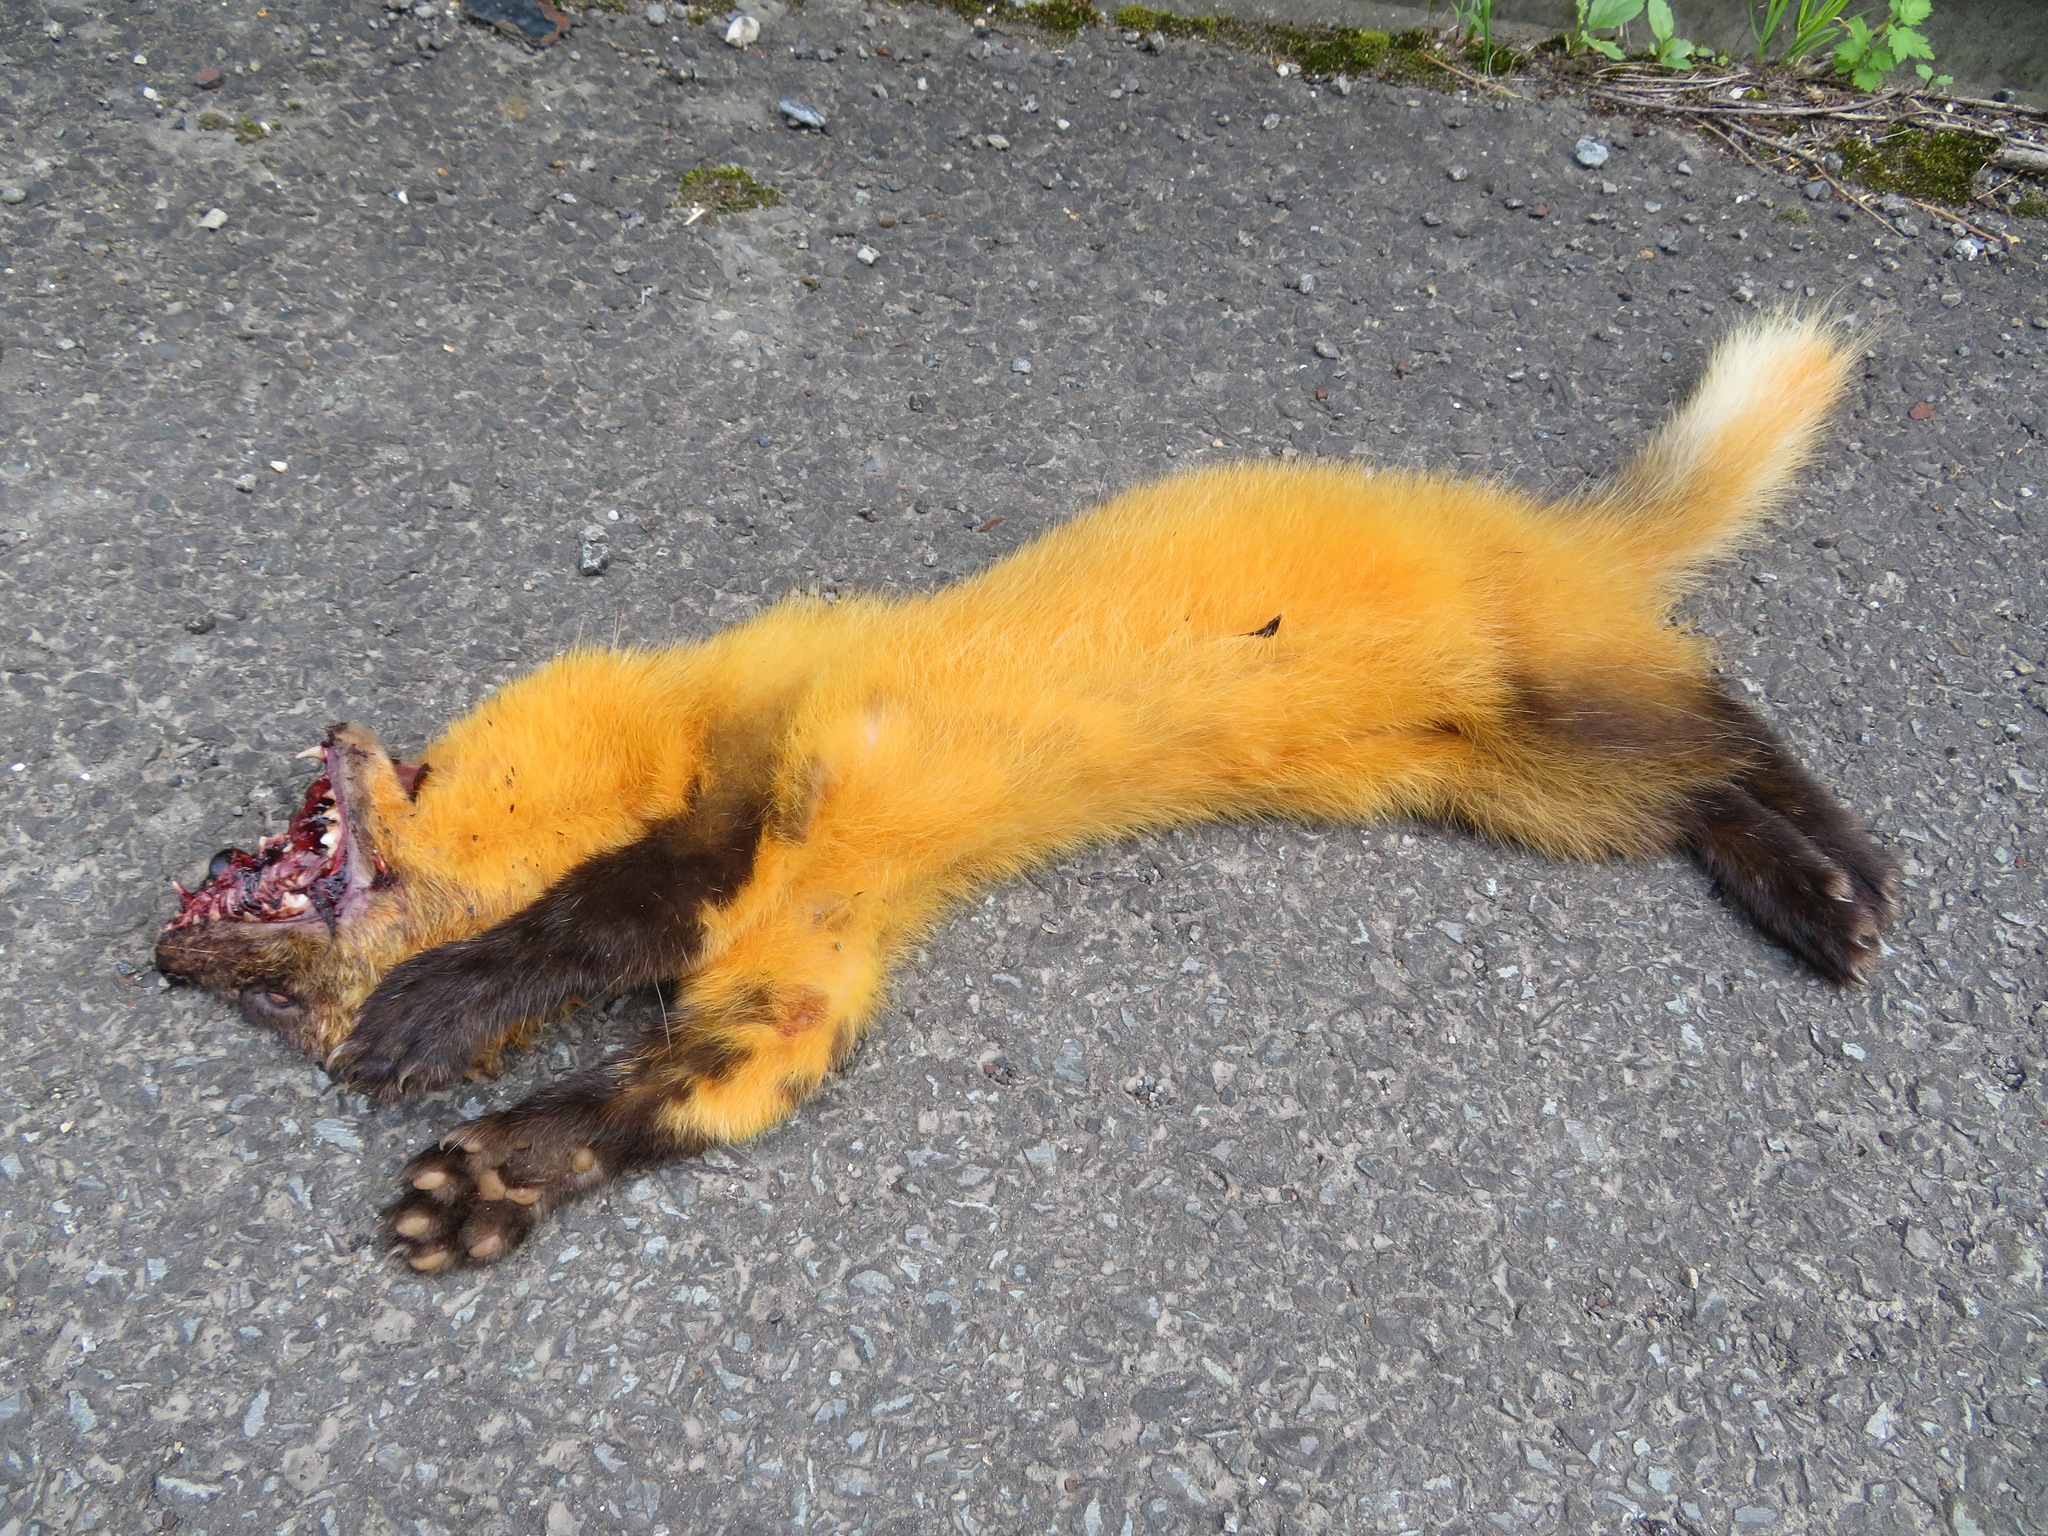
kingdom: Animalia
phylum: Chordata
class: Mammalia
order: Carnivora
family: Mustelidae
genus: Martes
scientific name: Martes melampus
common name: Japanese marten
